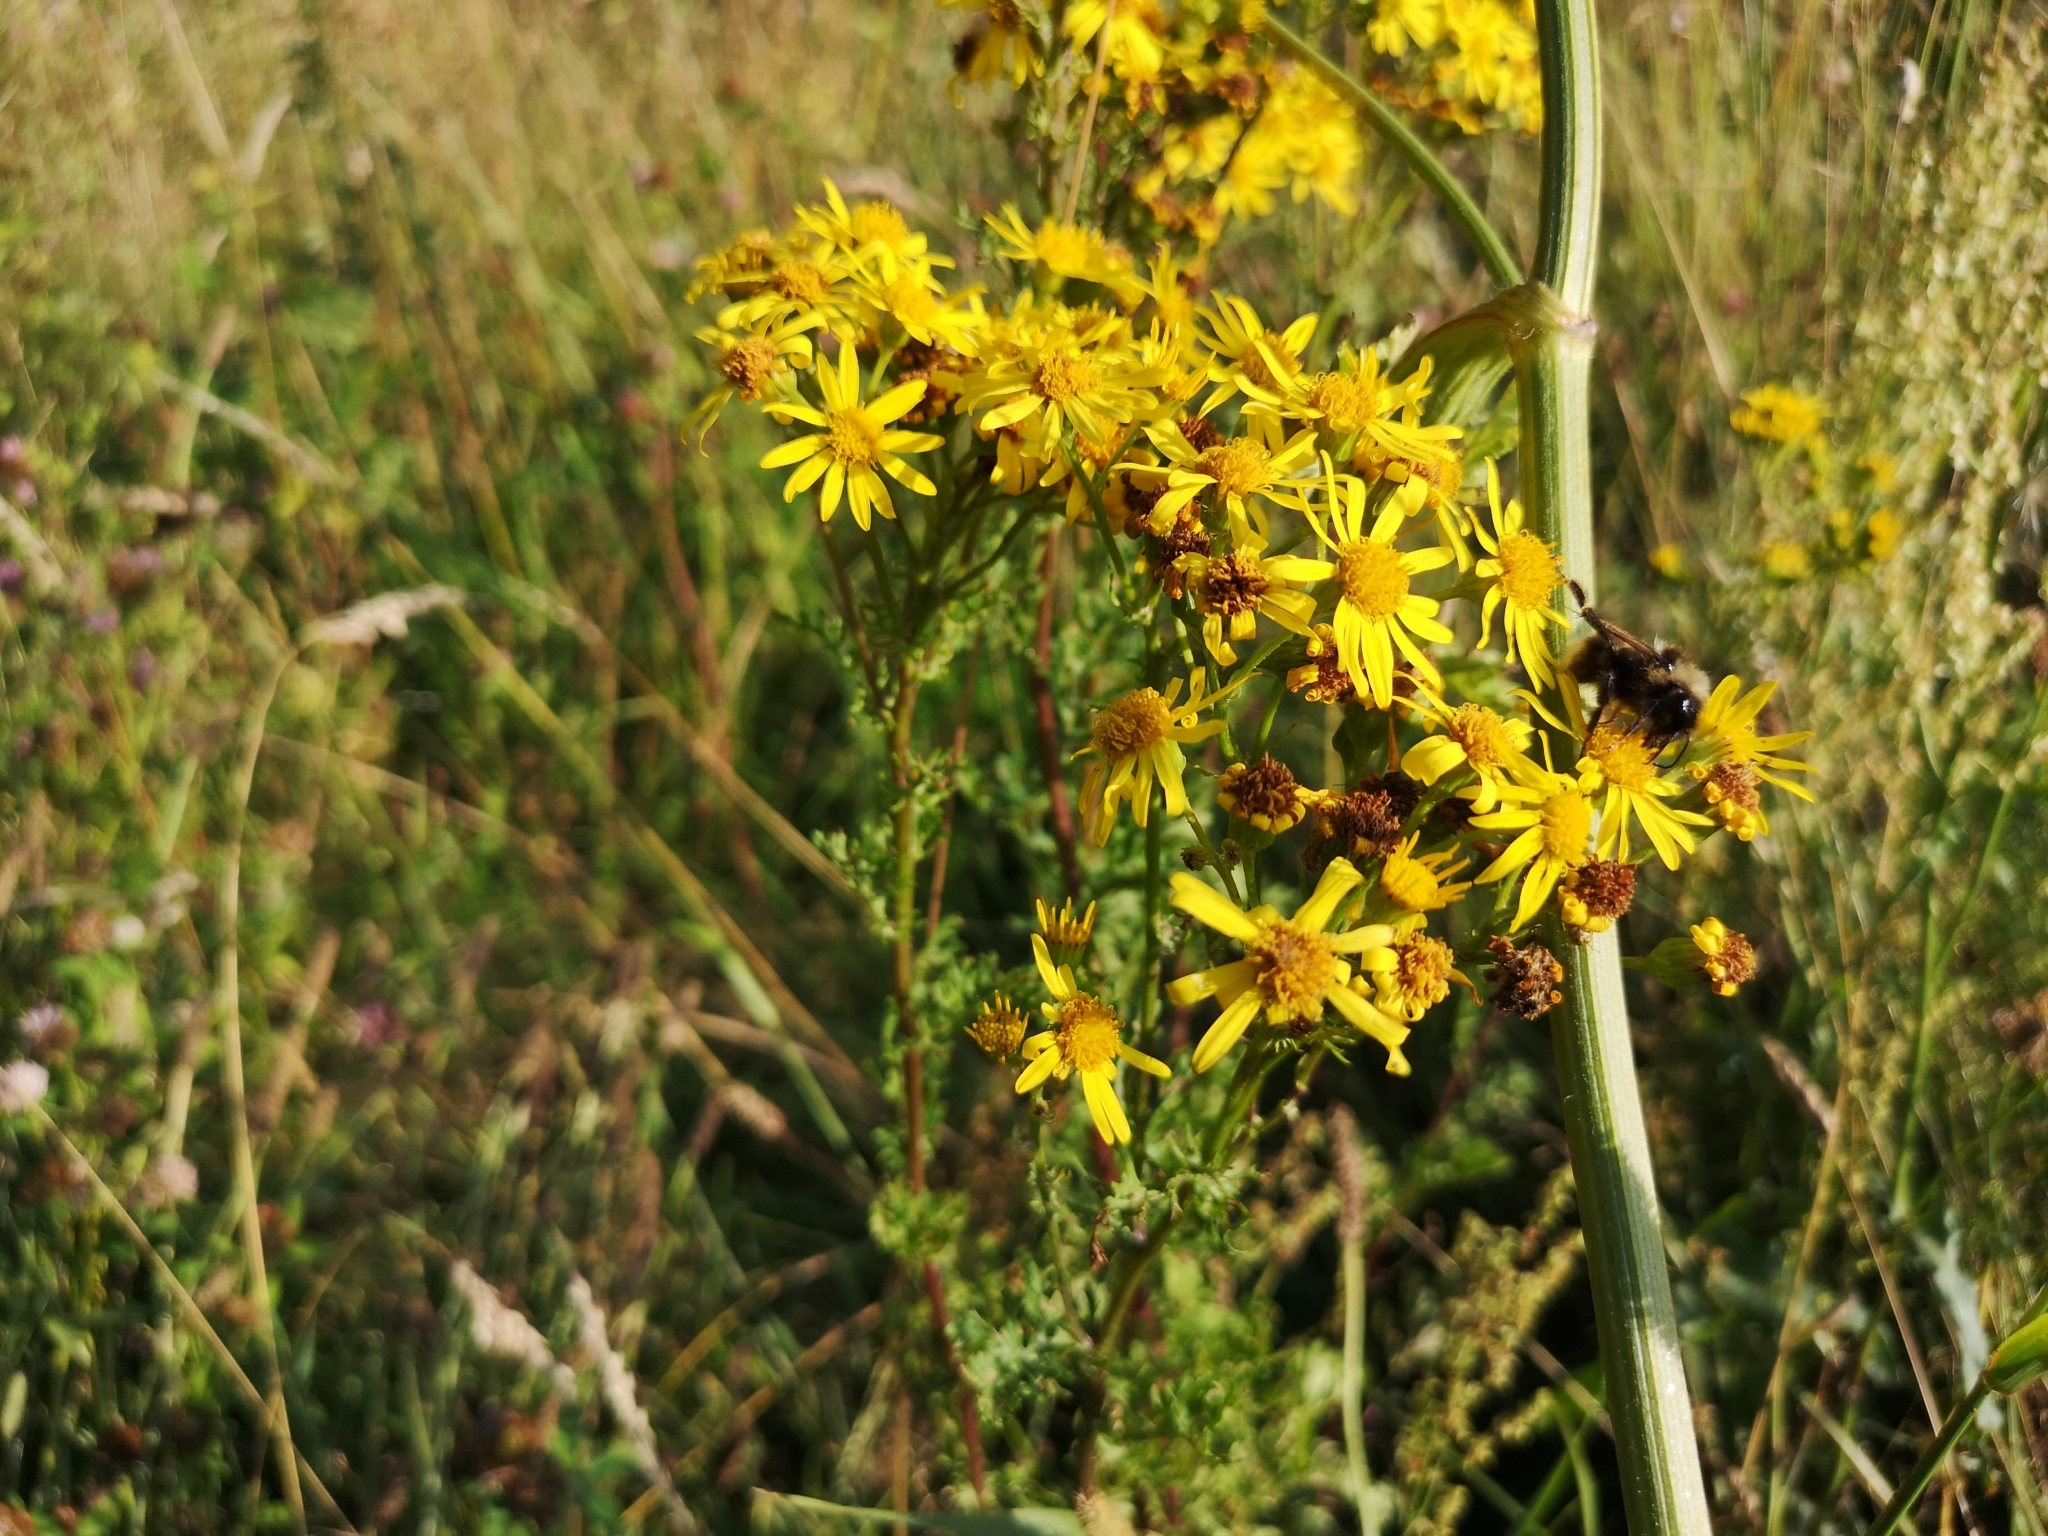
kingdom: Plantae
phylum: Tracheophyta
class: Magnoliopsida
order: Asterales
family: Asteraceae
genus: Jacobaea
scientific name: Jacobaea vulgaris
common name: Stinking willie
